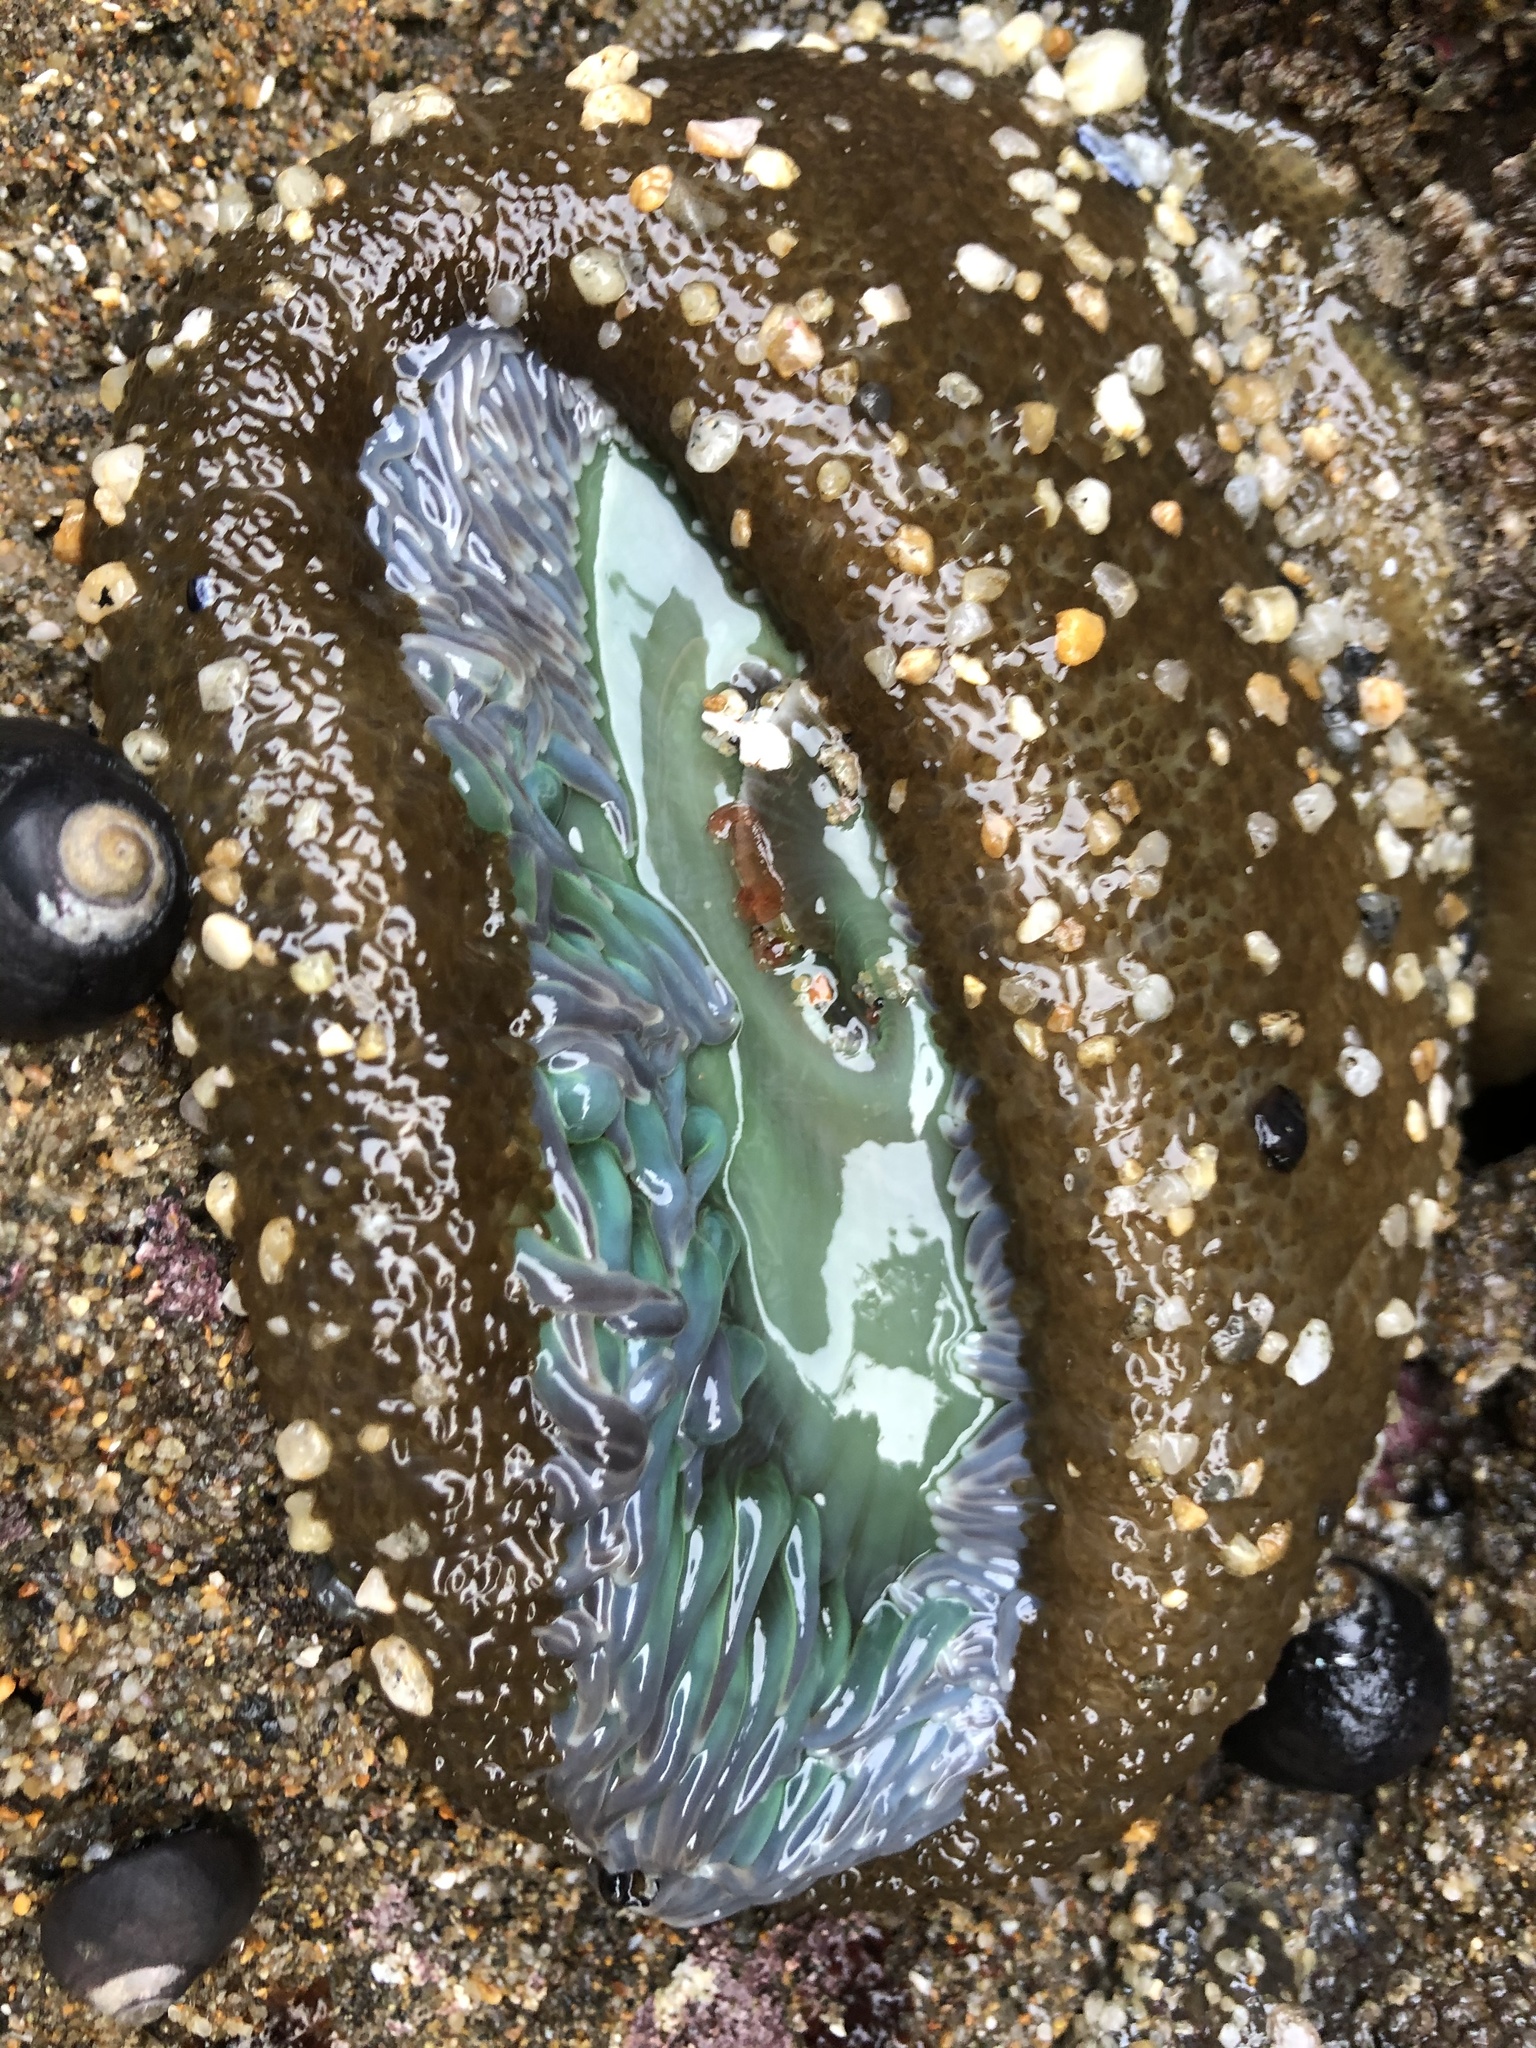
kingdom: Animalia
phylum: Cnidaria
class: Anthozoa
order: Actiniaria
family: Actiniidae
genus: Anthopleura
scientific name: Anthopleura xanthogrammica
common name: Giant green anemone
